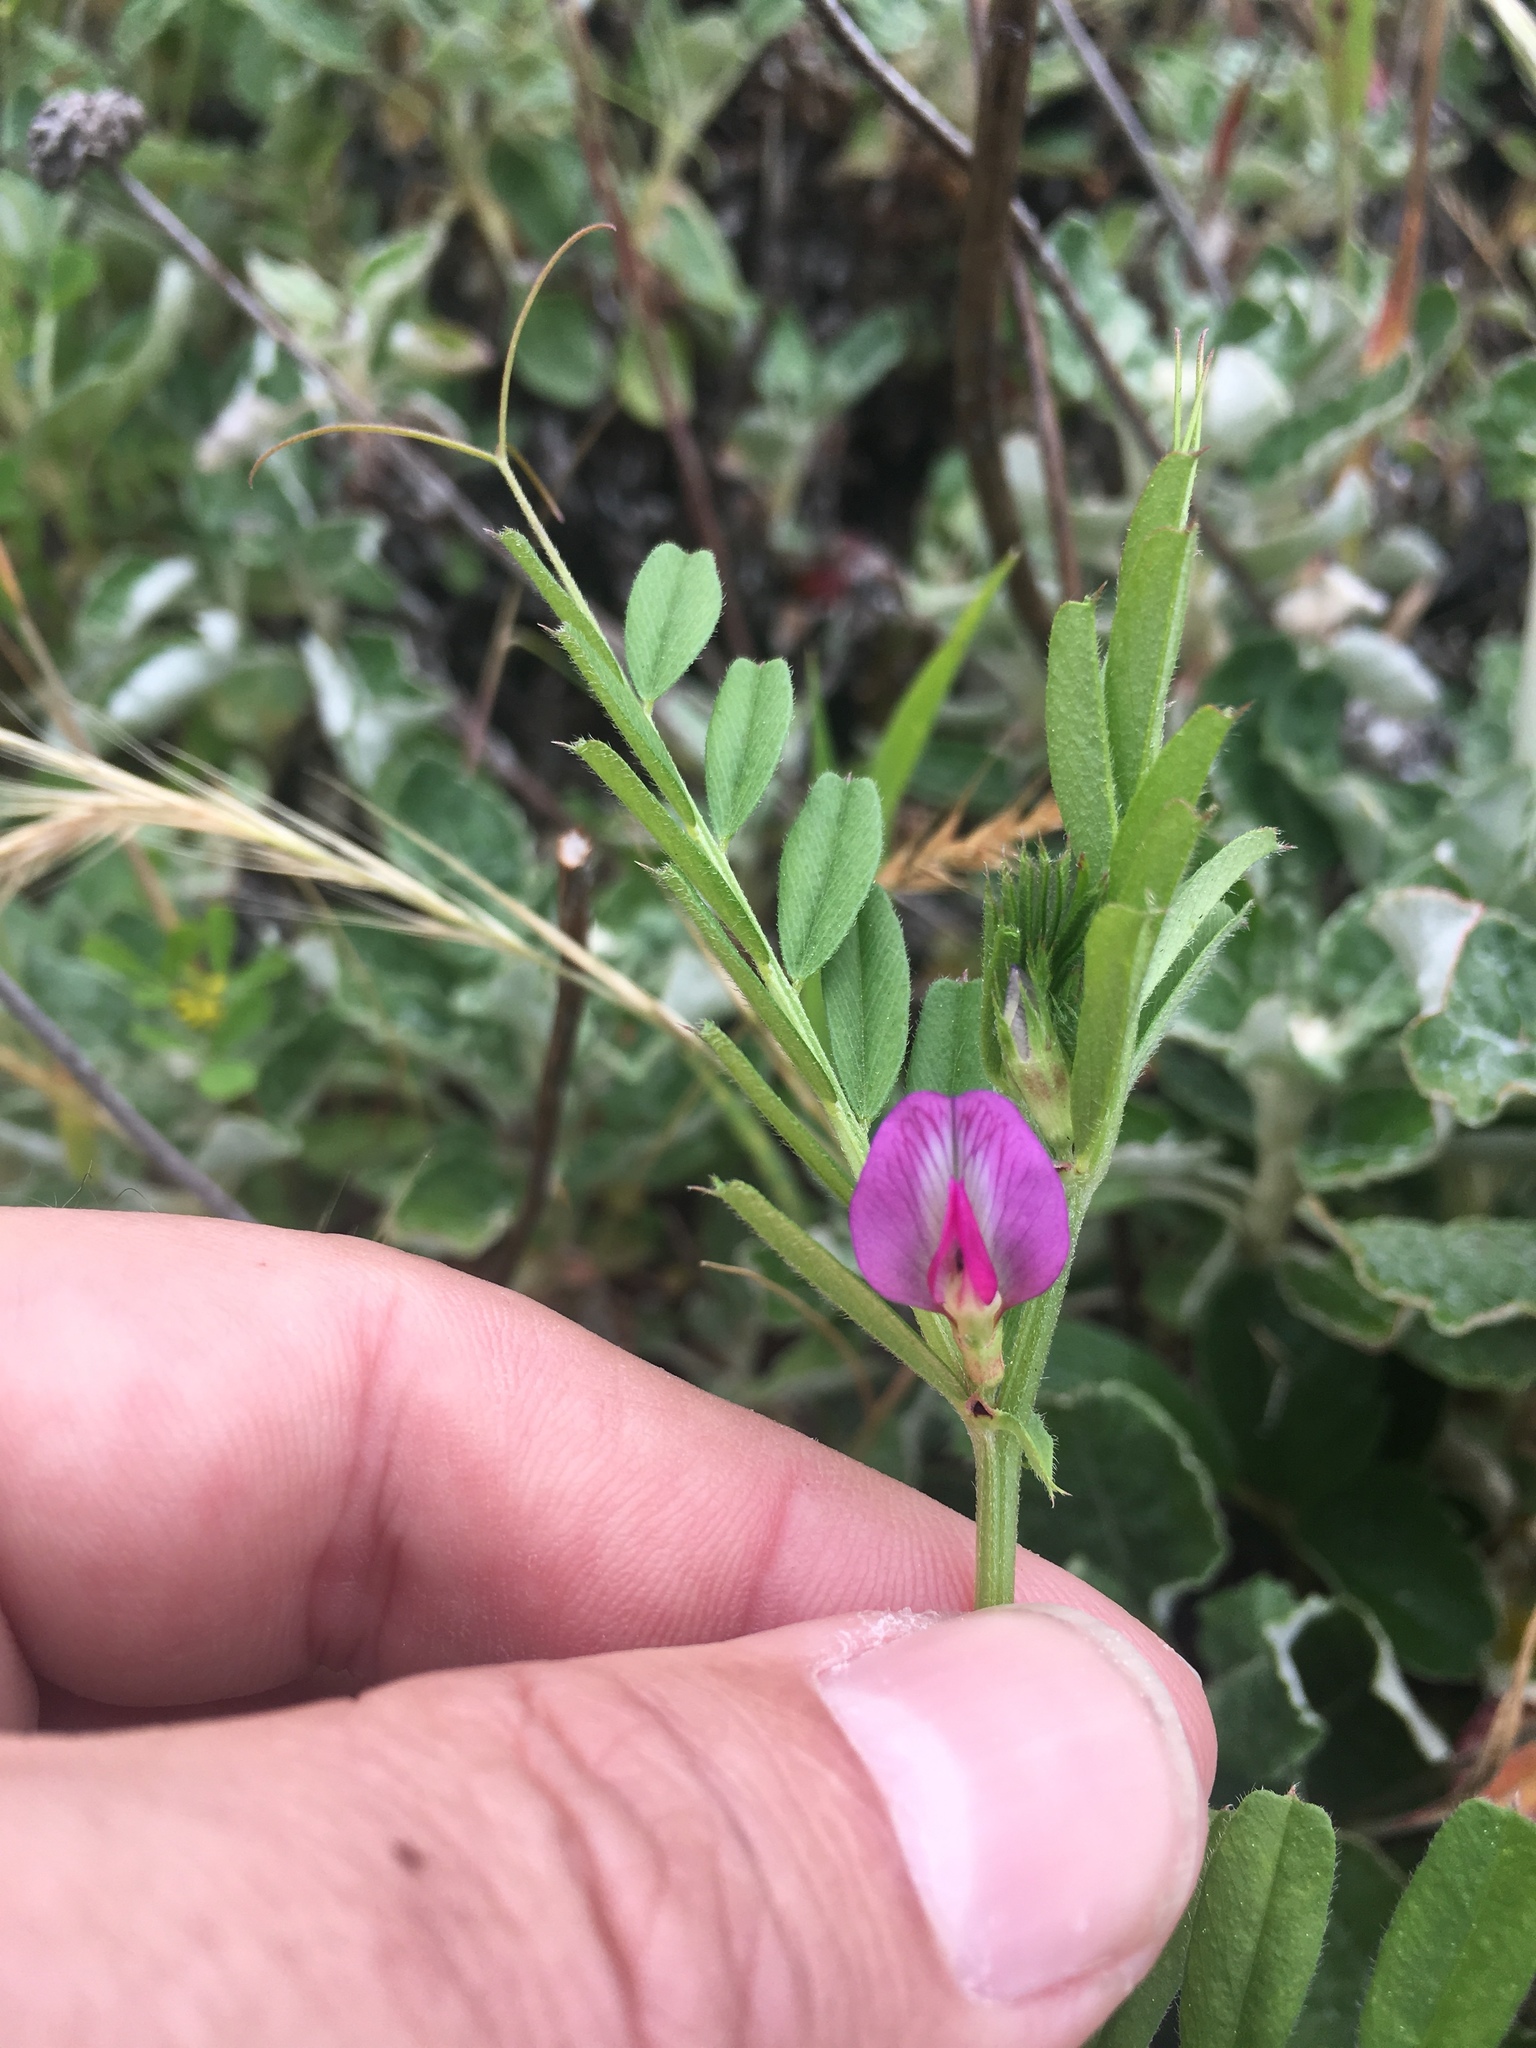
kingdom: Plantae
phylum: Tracheophyta
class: Magnoliopsida
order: Fabales
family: Fabaceae
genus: Vicia
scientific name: Vicia sativa
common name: Garden vetch
